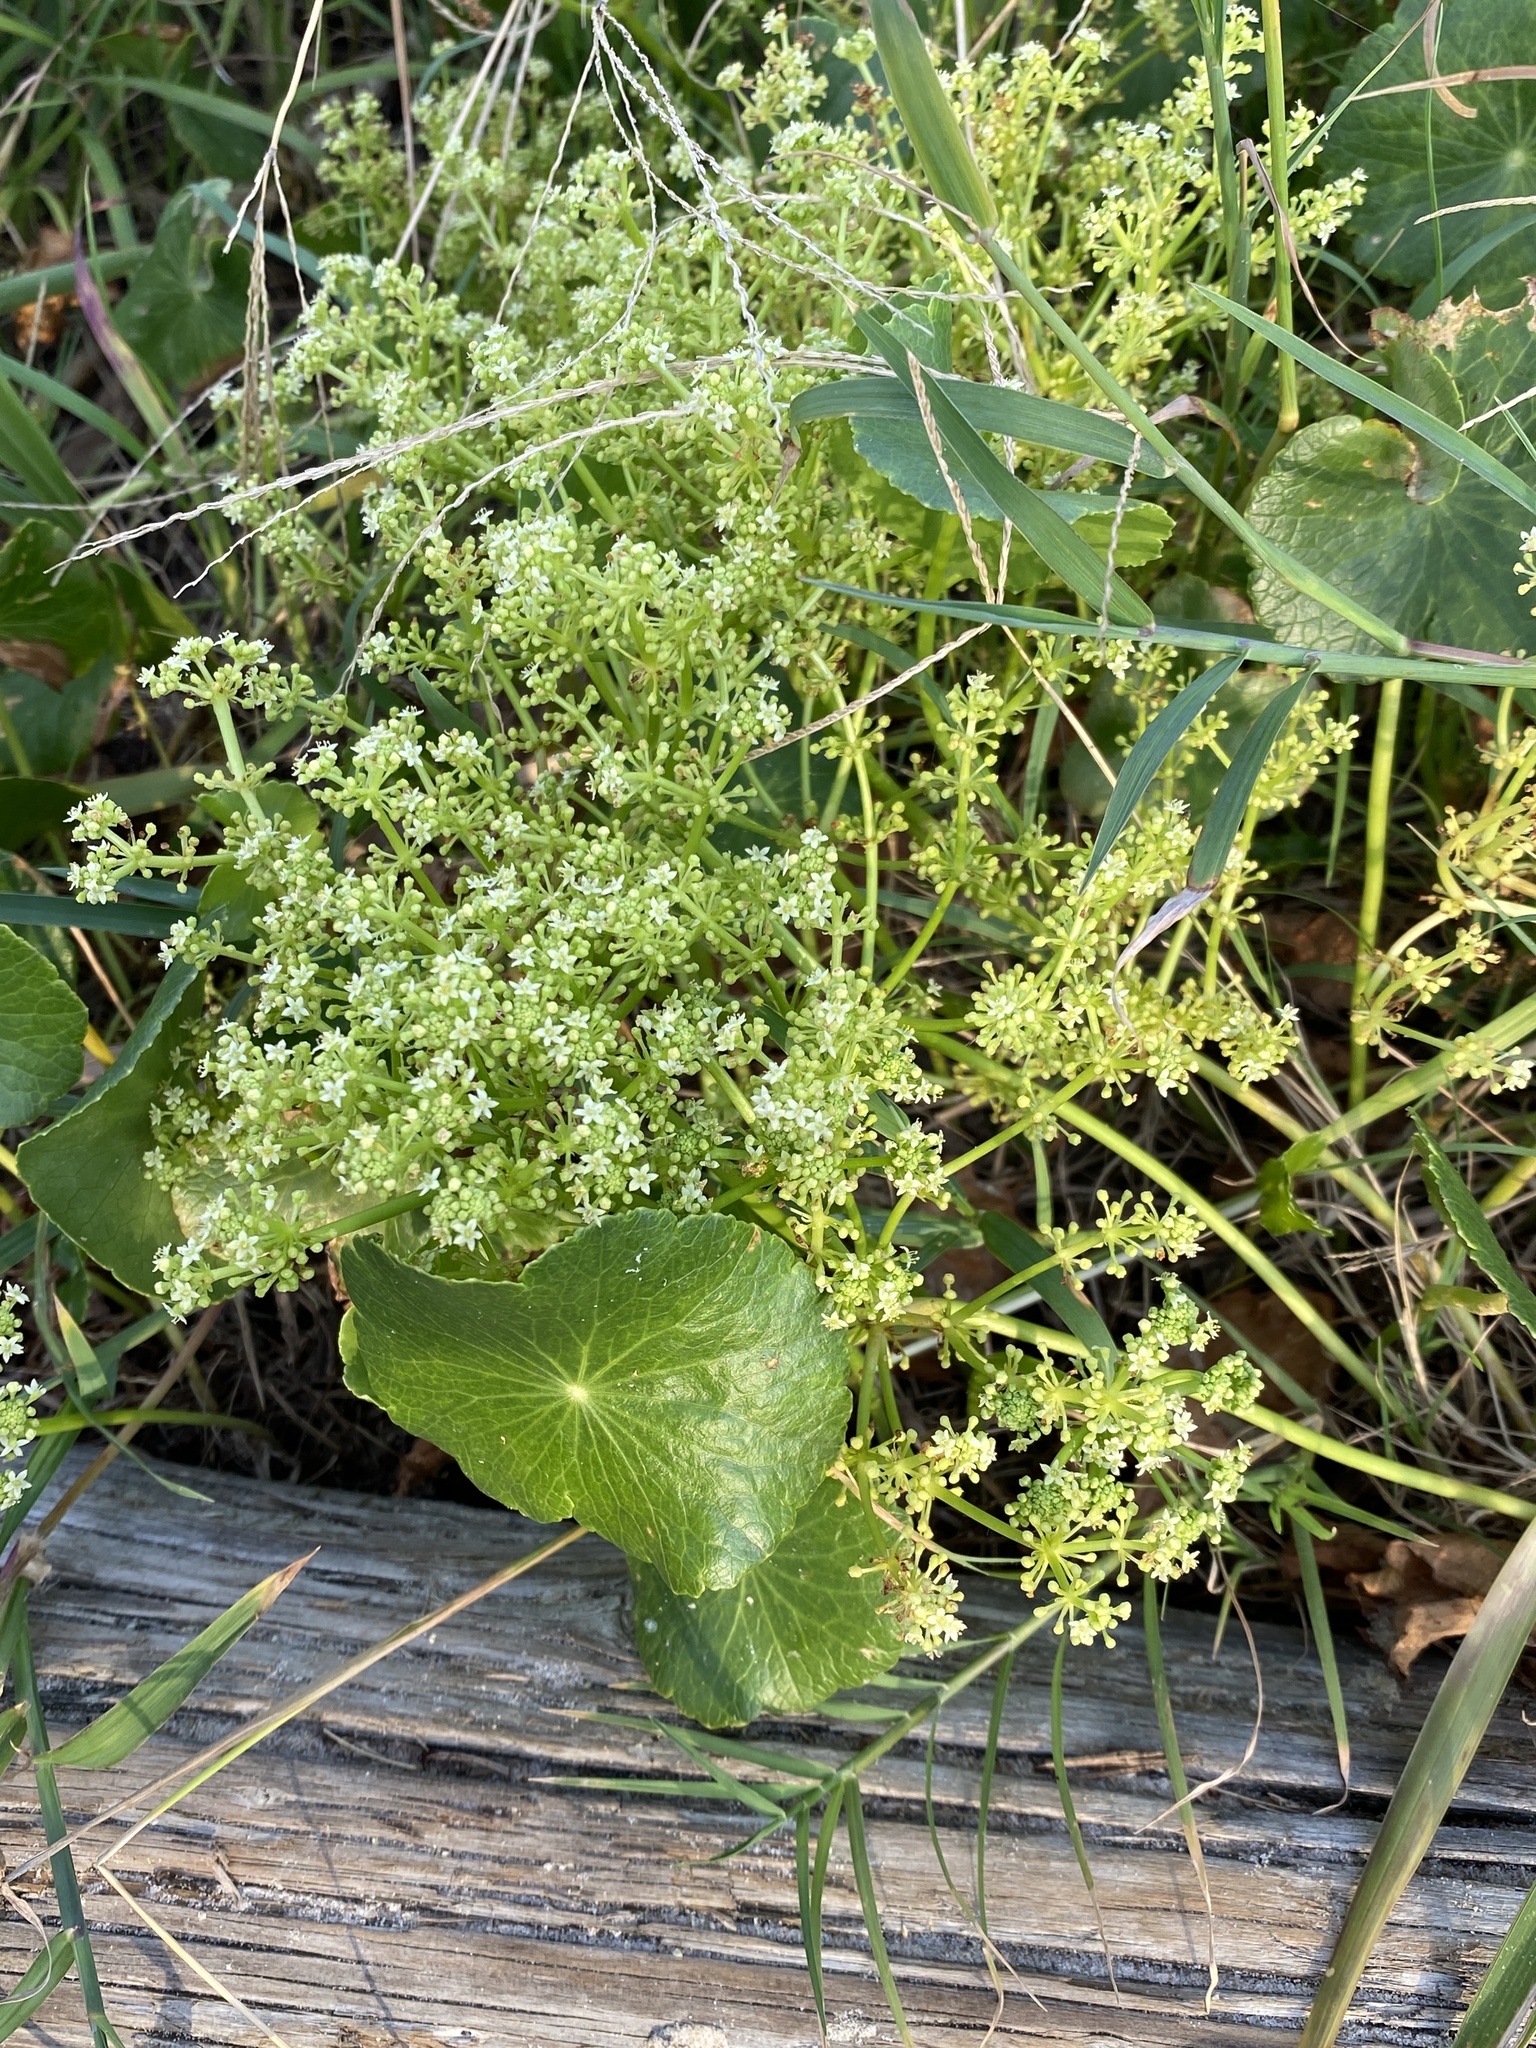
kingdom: Plantae
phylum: Tracheophyta
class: Magnoliopsida
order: Apiales
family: Araliaceae
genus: Hydrocotyle
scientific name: Hydrocotyle bonariensis
